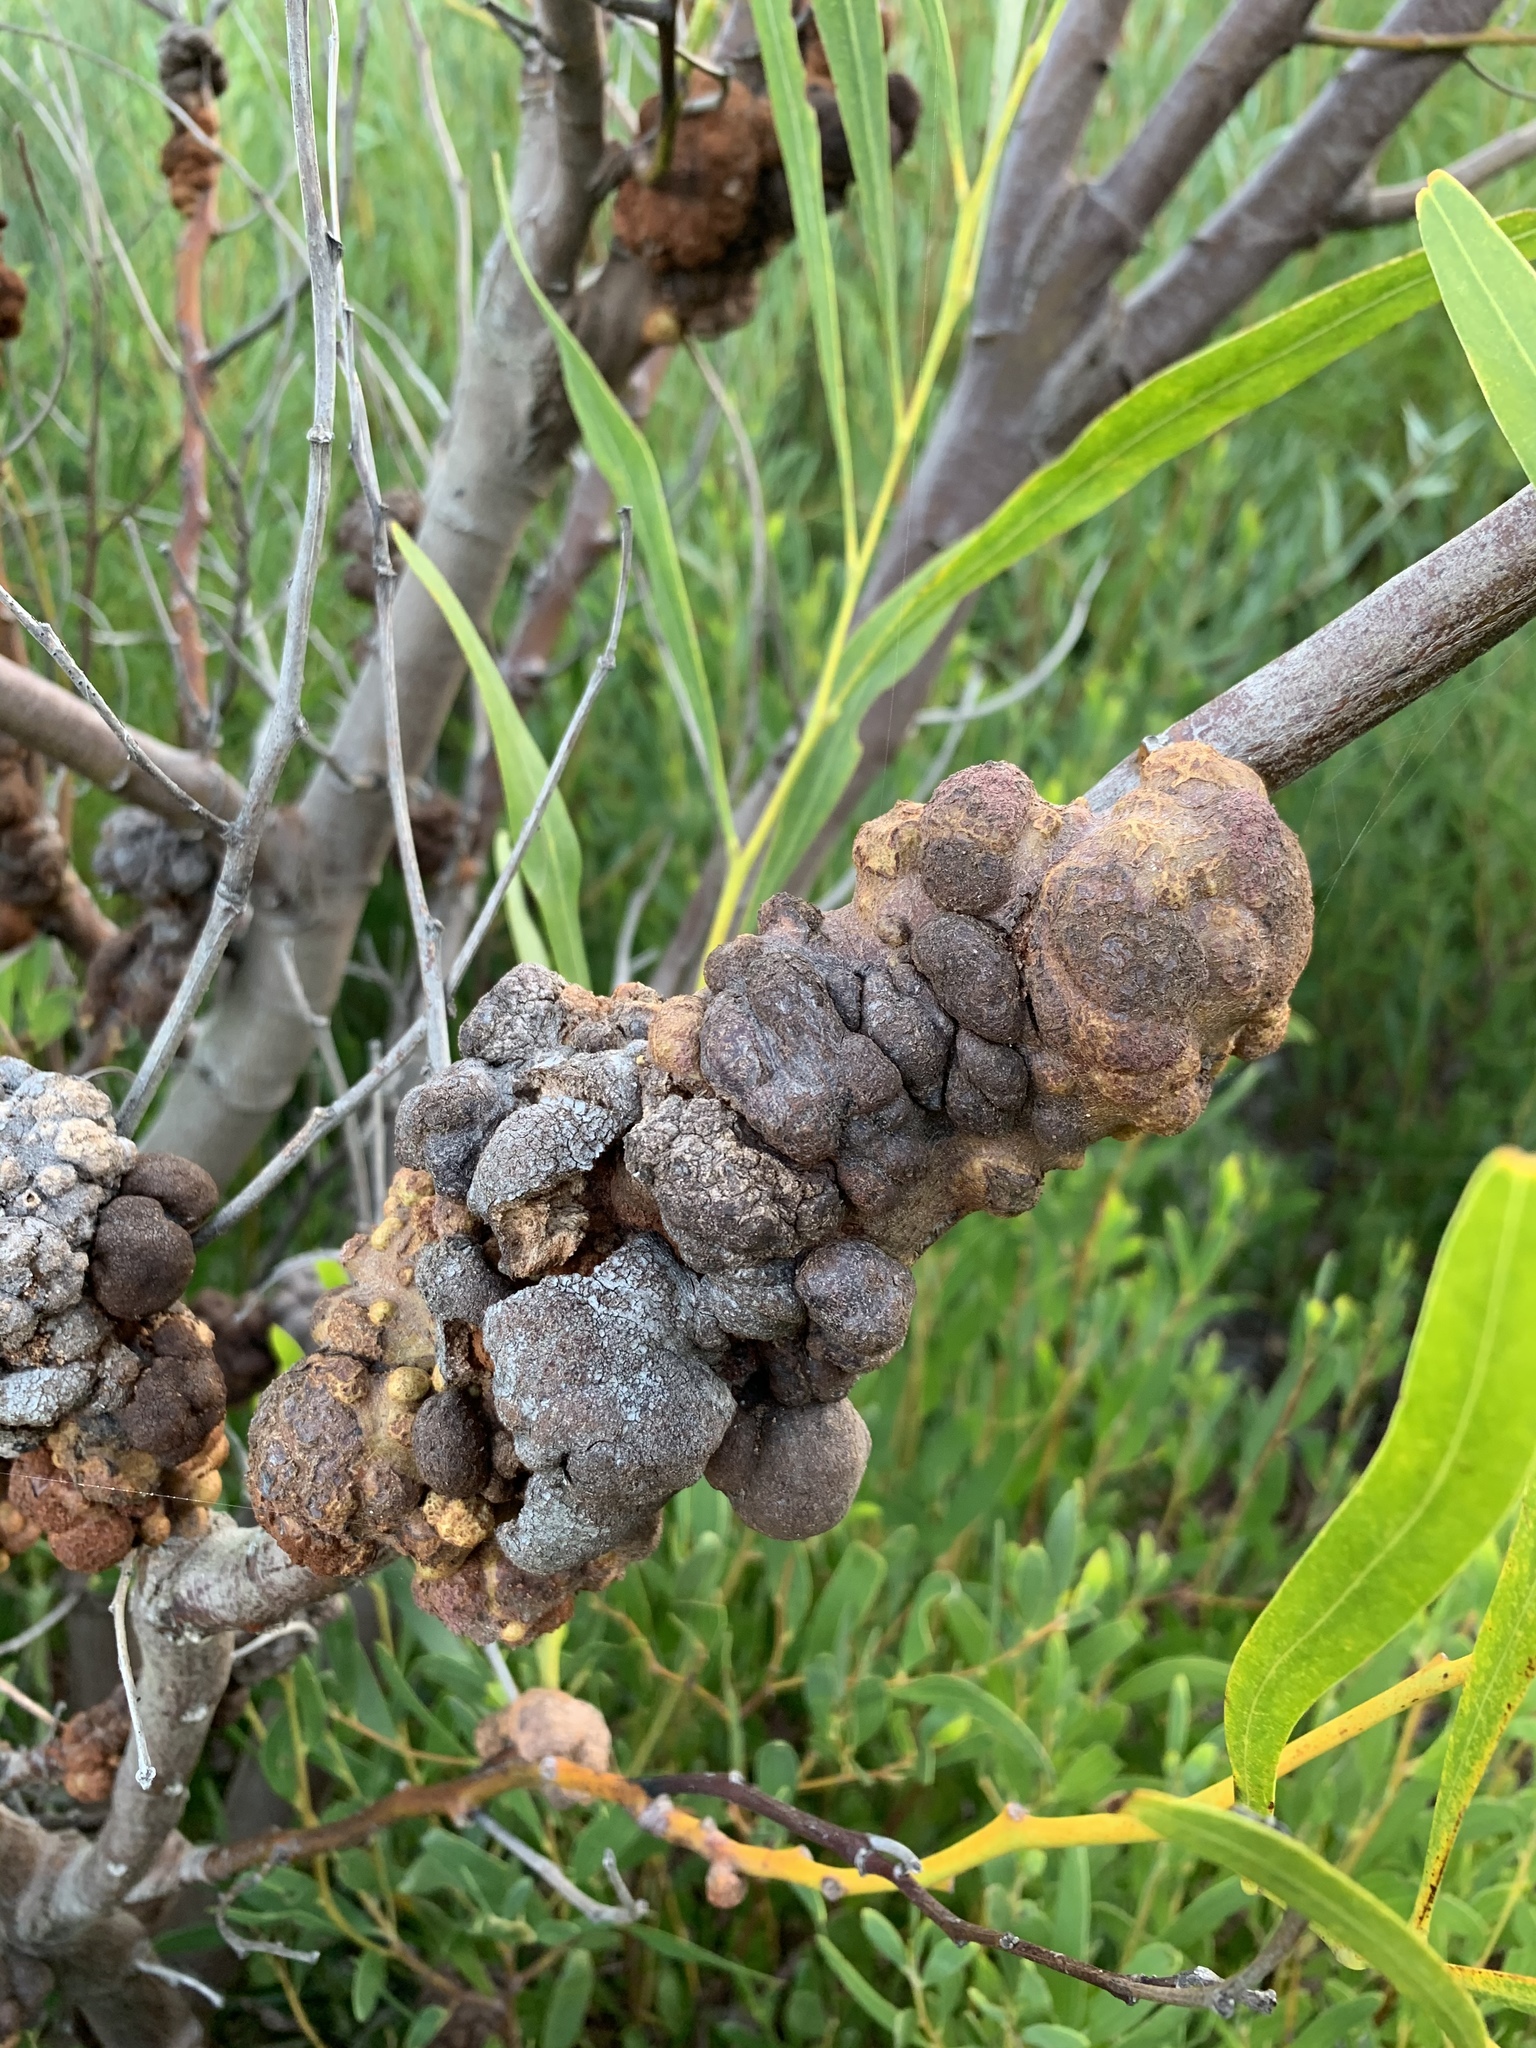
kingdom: Fungi
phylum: Basidiomycota
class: Pucciniomycetes
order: Pucciniales
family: Uromycladiaceae
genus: Uromycladium
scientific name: Uromycladium morrisii
